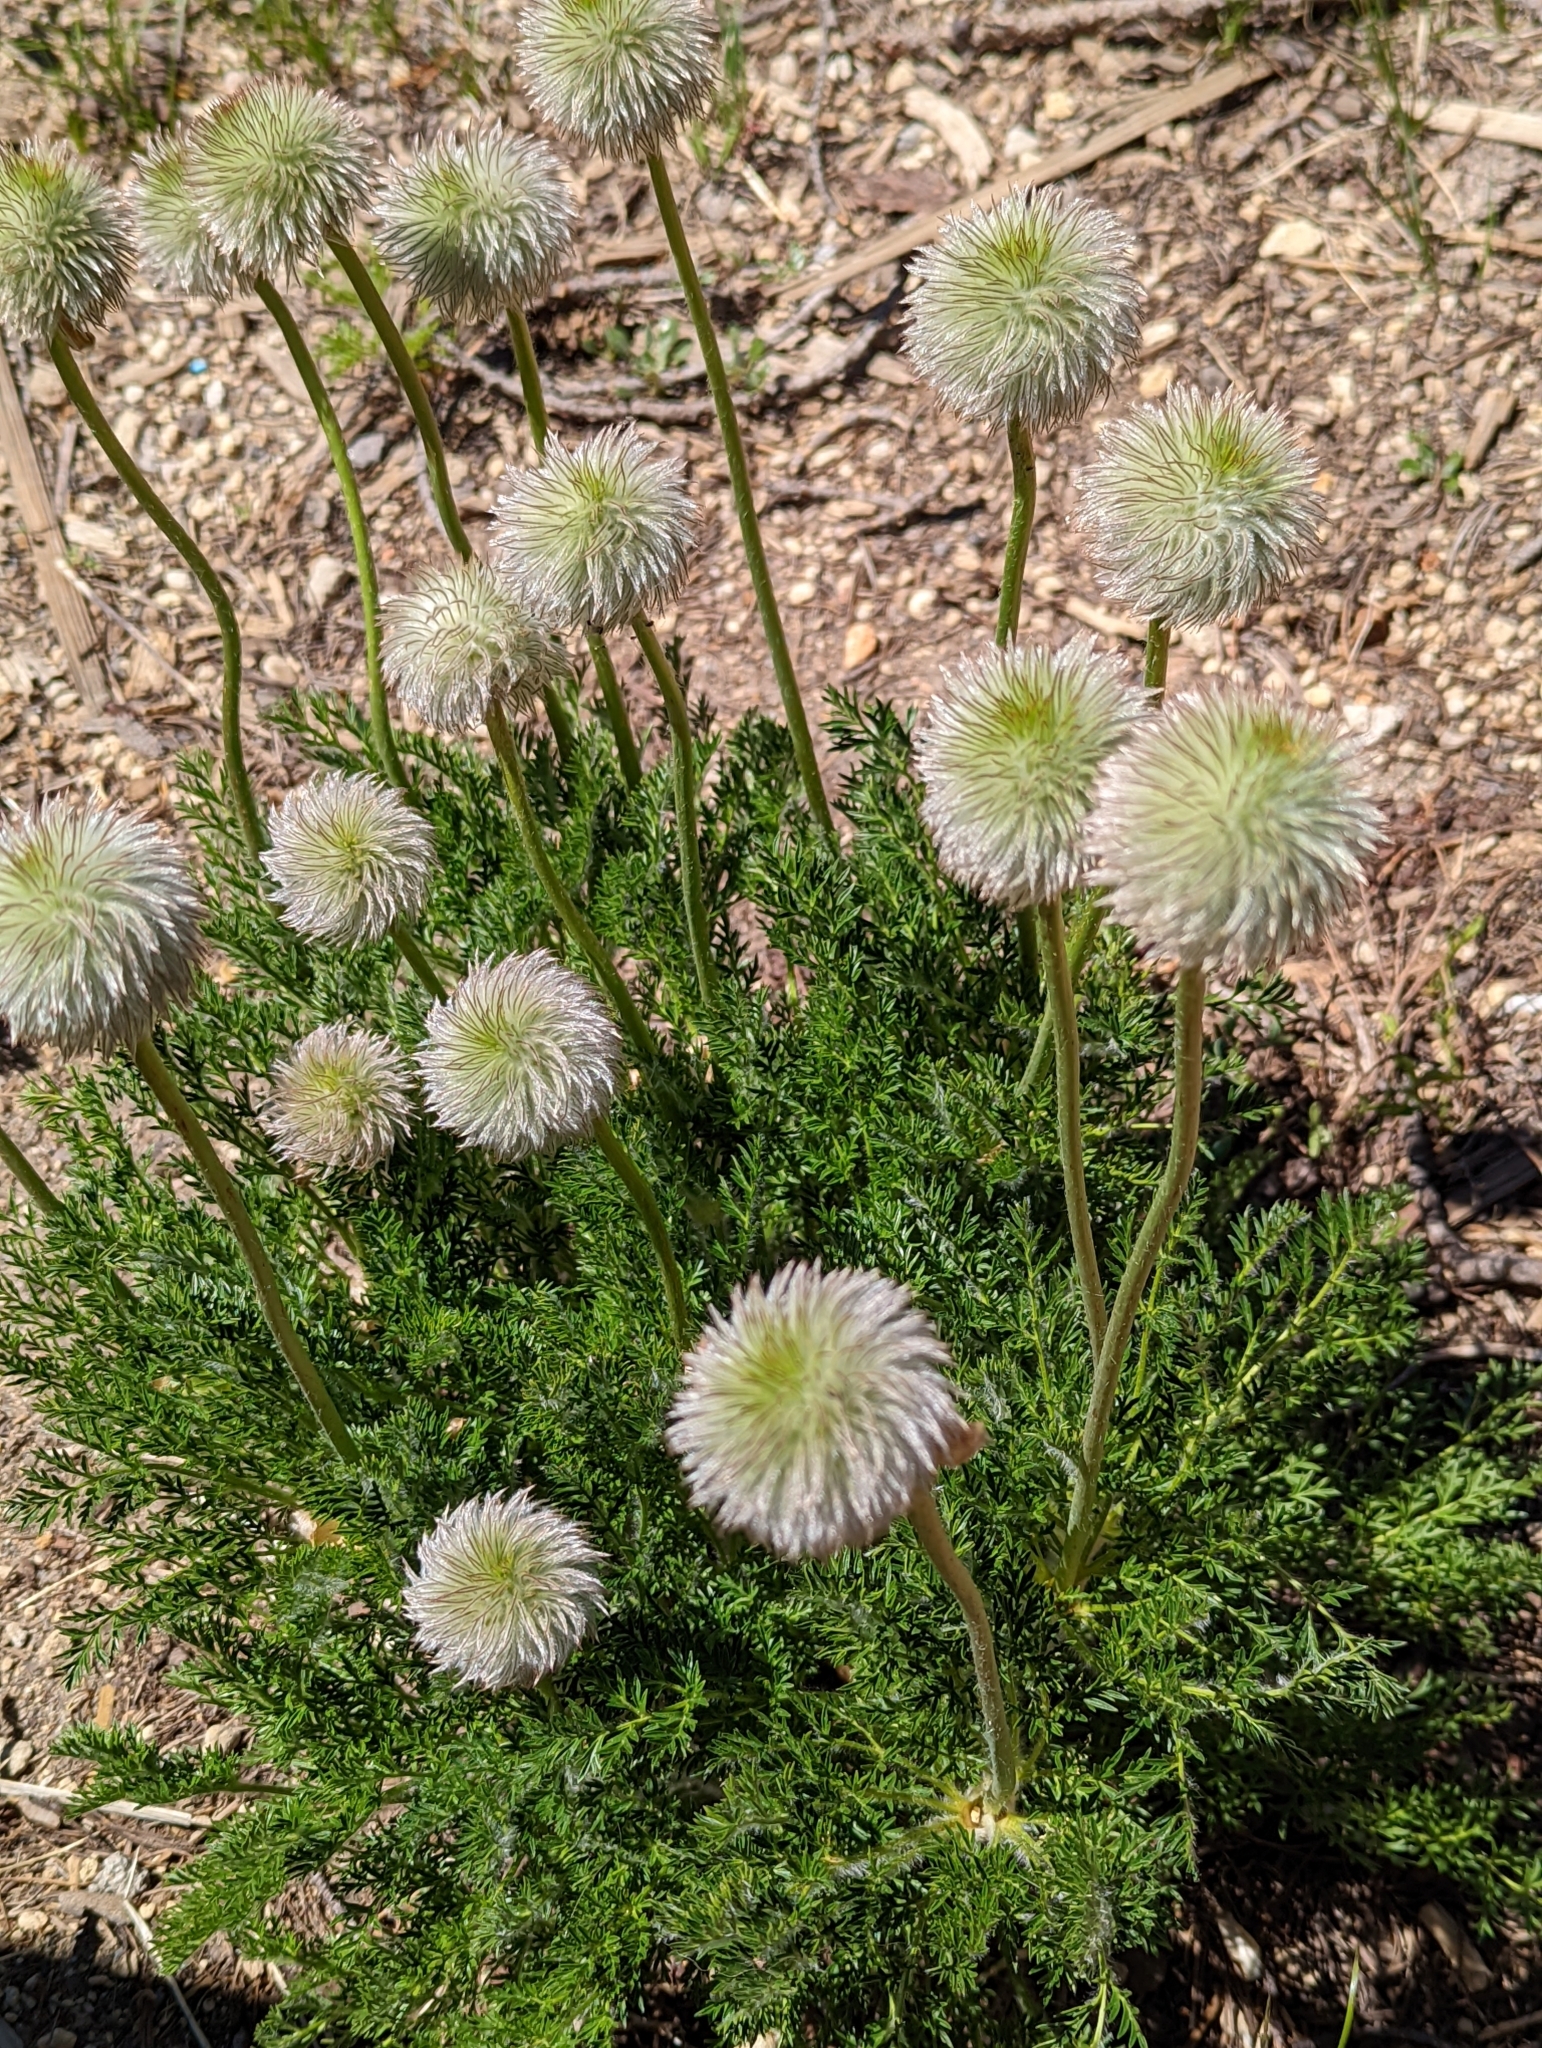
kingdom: Plantae
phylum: Tracheophyta
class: Magnoliopsida
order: Ranunculales
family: Ranunculaceae
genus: Pulsatilla
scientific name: Pulsatilla occidentalis
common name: Mountain pasqueflower
